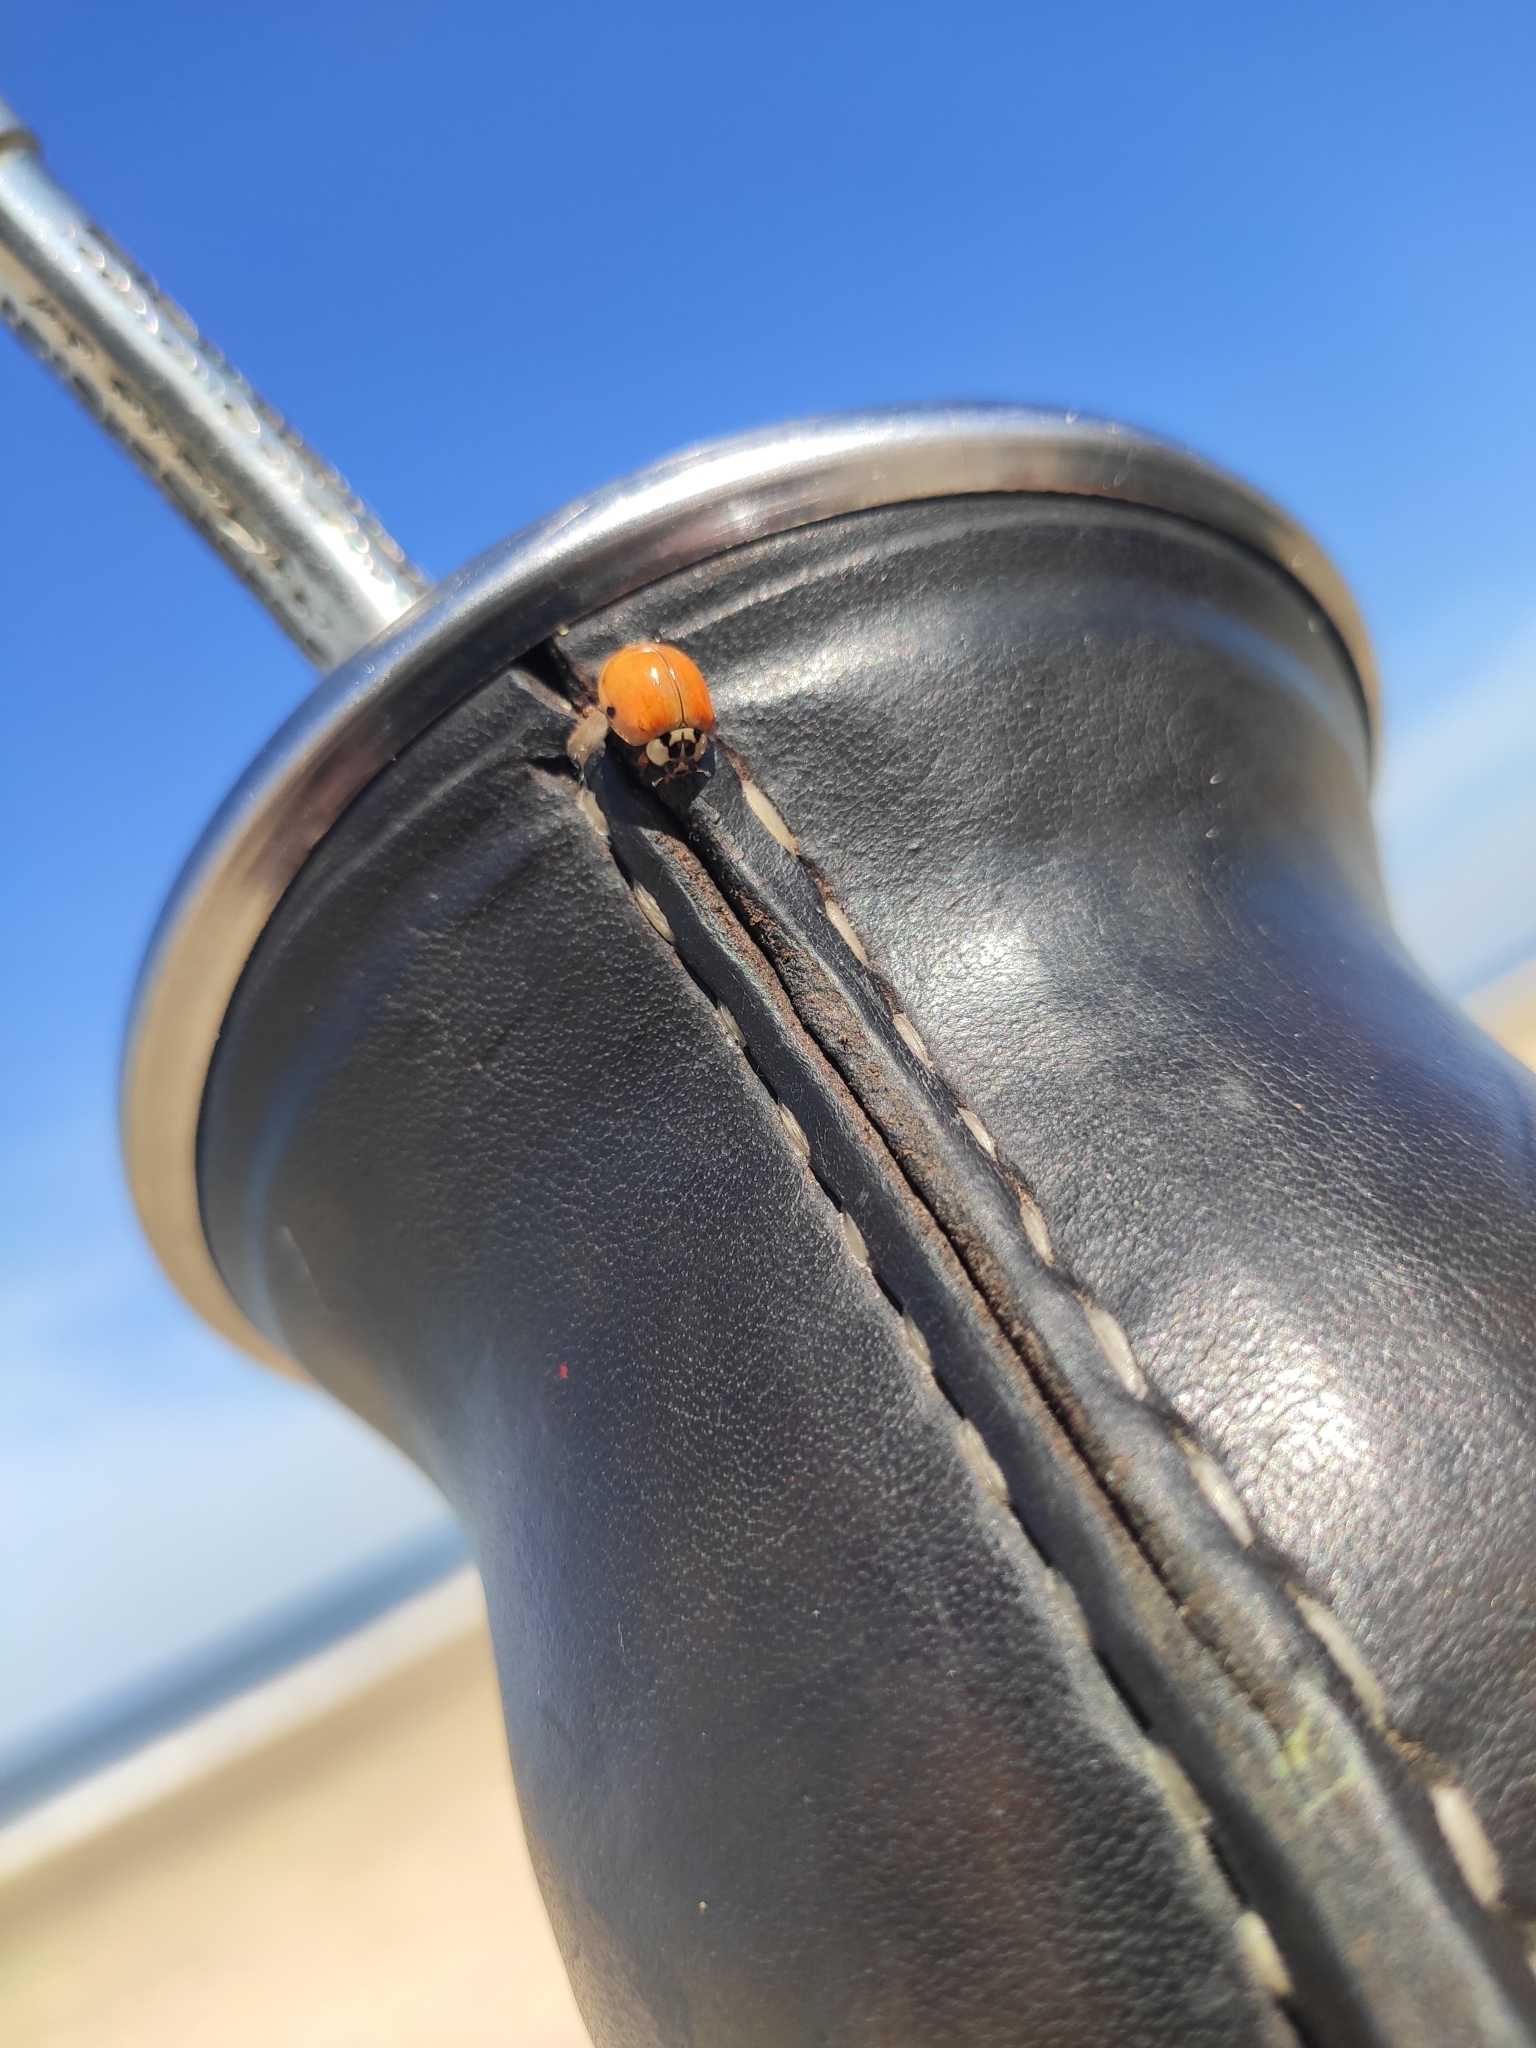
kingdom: Animalia
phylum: Arthropoda
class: Insecta
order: Coleoptera
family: Coccinellidae
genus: Harmonia
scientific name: Harmonia axyridis
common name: Harlequin ladybird
